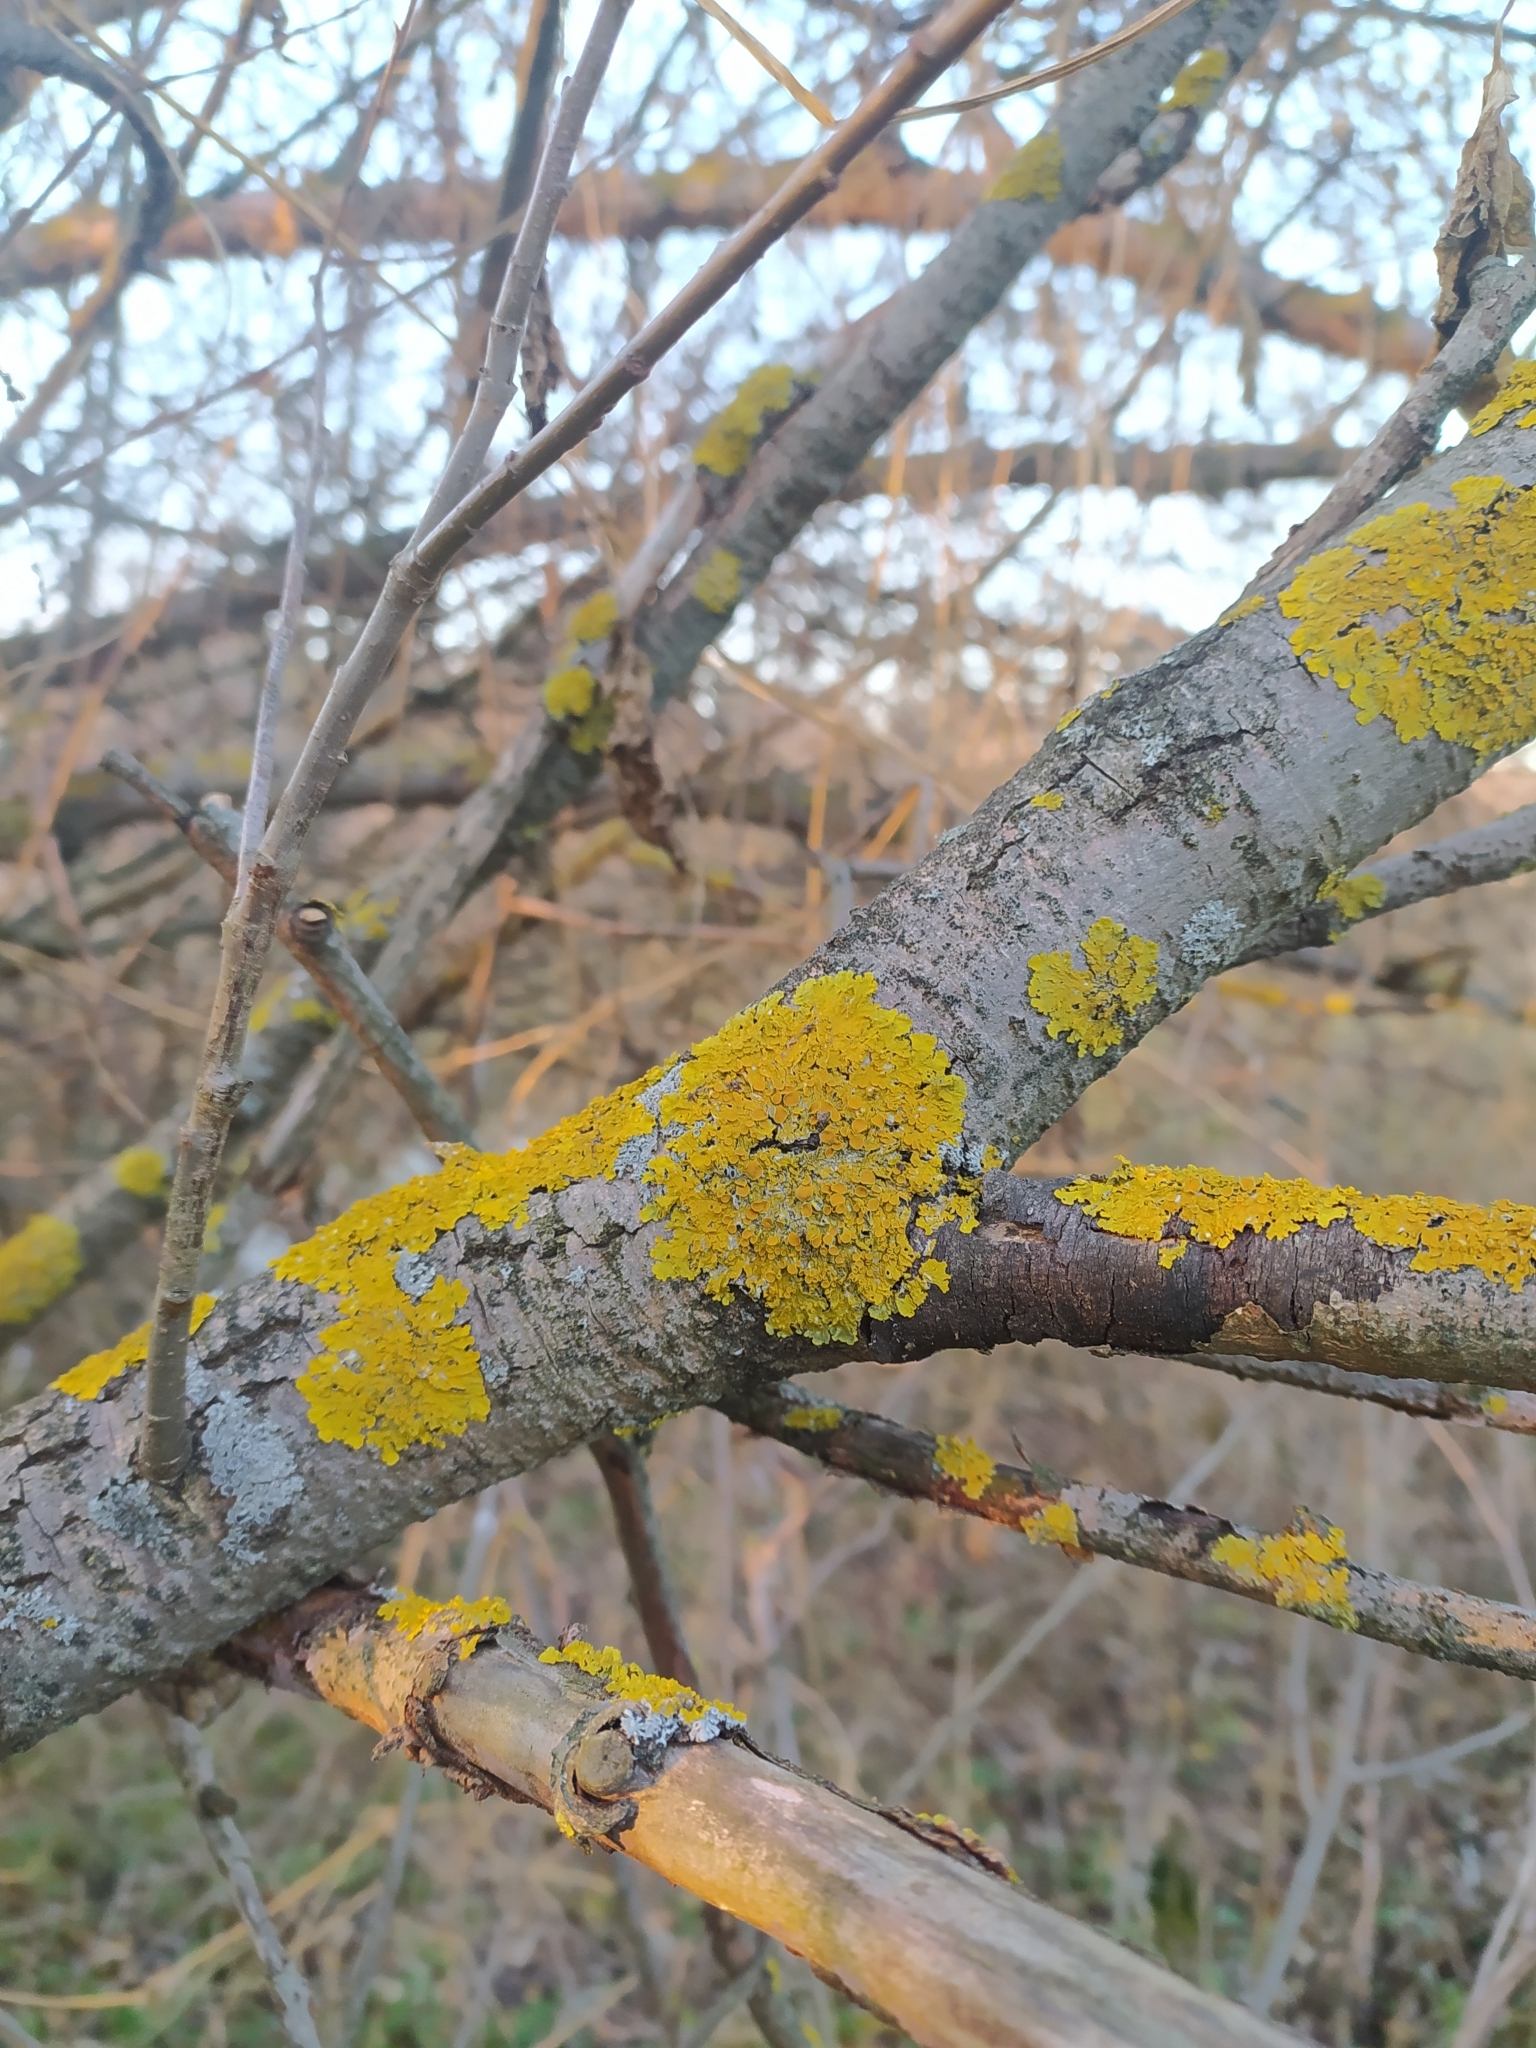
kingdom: Fungi
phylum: Ascomycota
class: Lecanoromycetes
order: Teloschistales
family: Teloschistaceae
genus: Xanthoria
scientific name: Xanthoria parietina
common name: Common orange lichen
